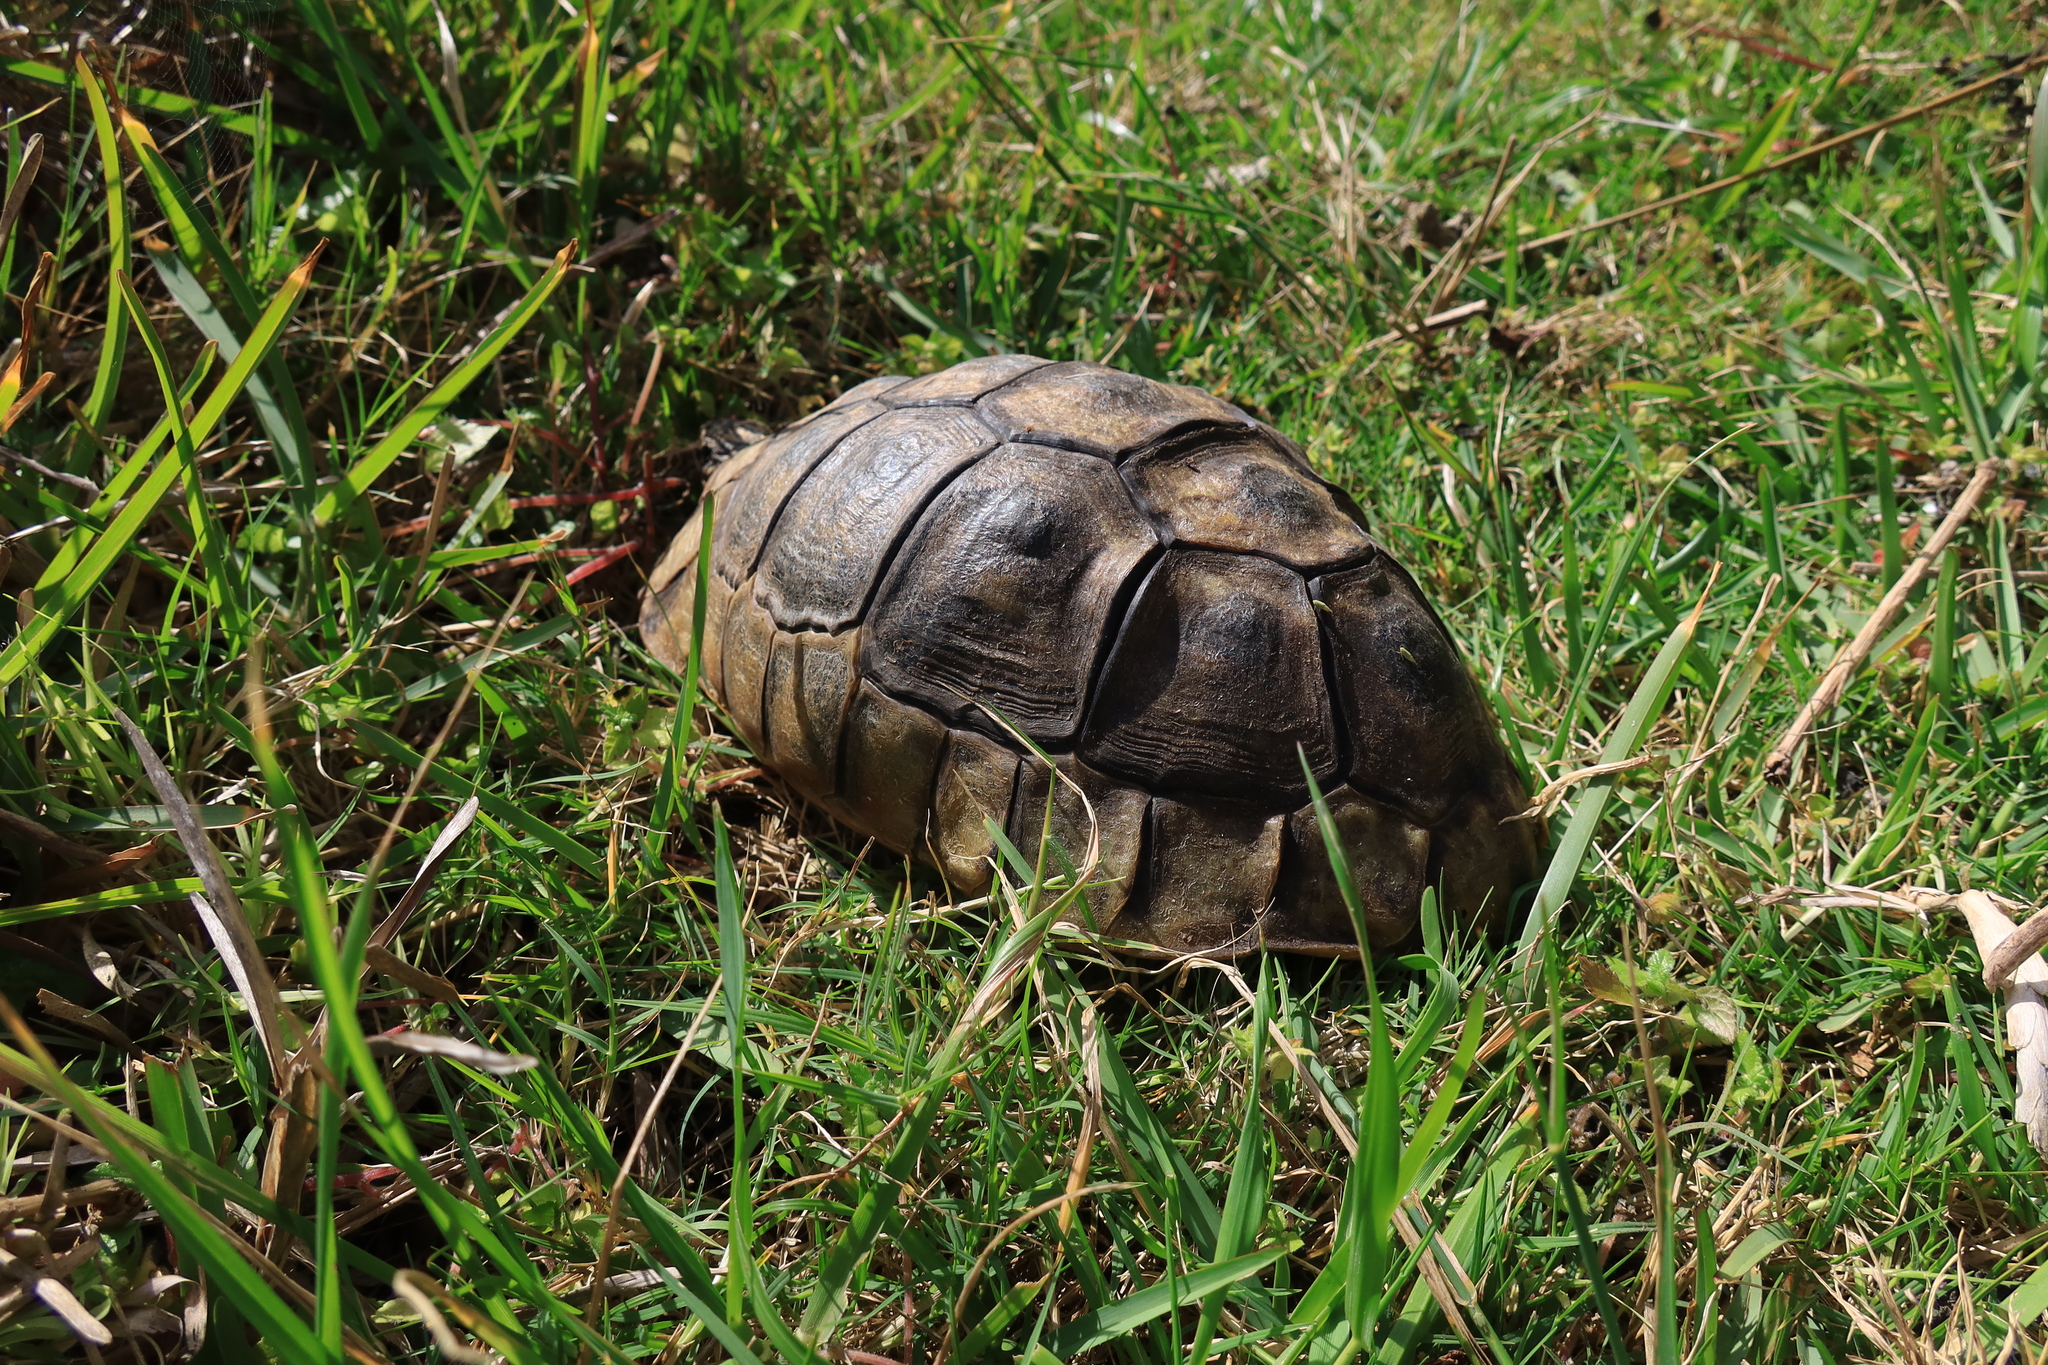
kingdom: Animalia
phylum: Chordata
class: Testudines
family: Testudinidae
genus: Chersina
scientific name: Chersina angulata
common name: South african bowsprit tortoise
